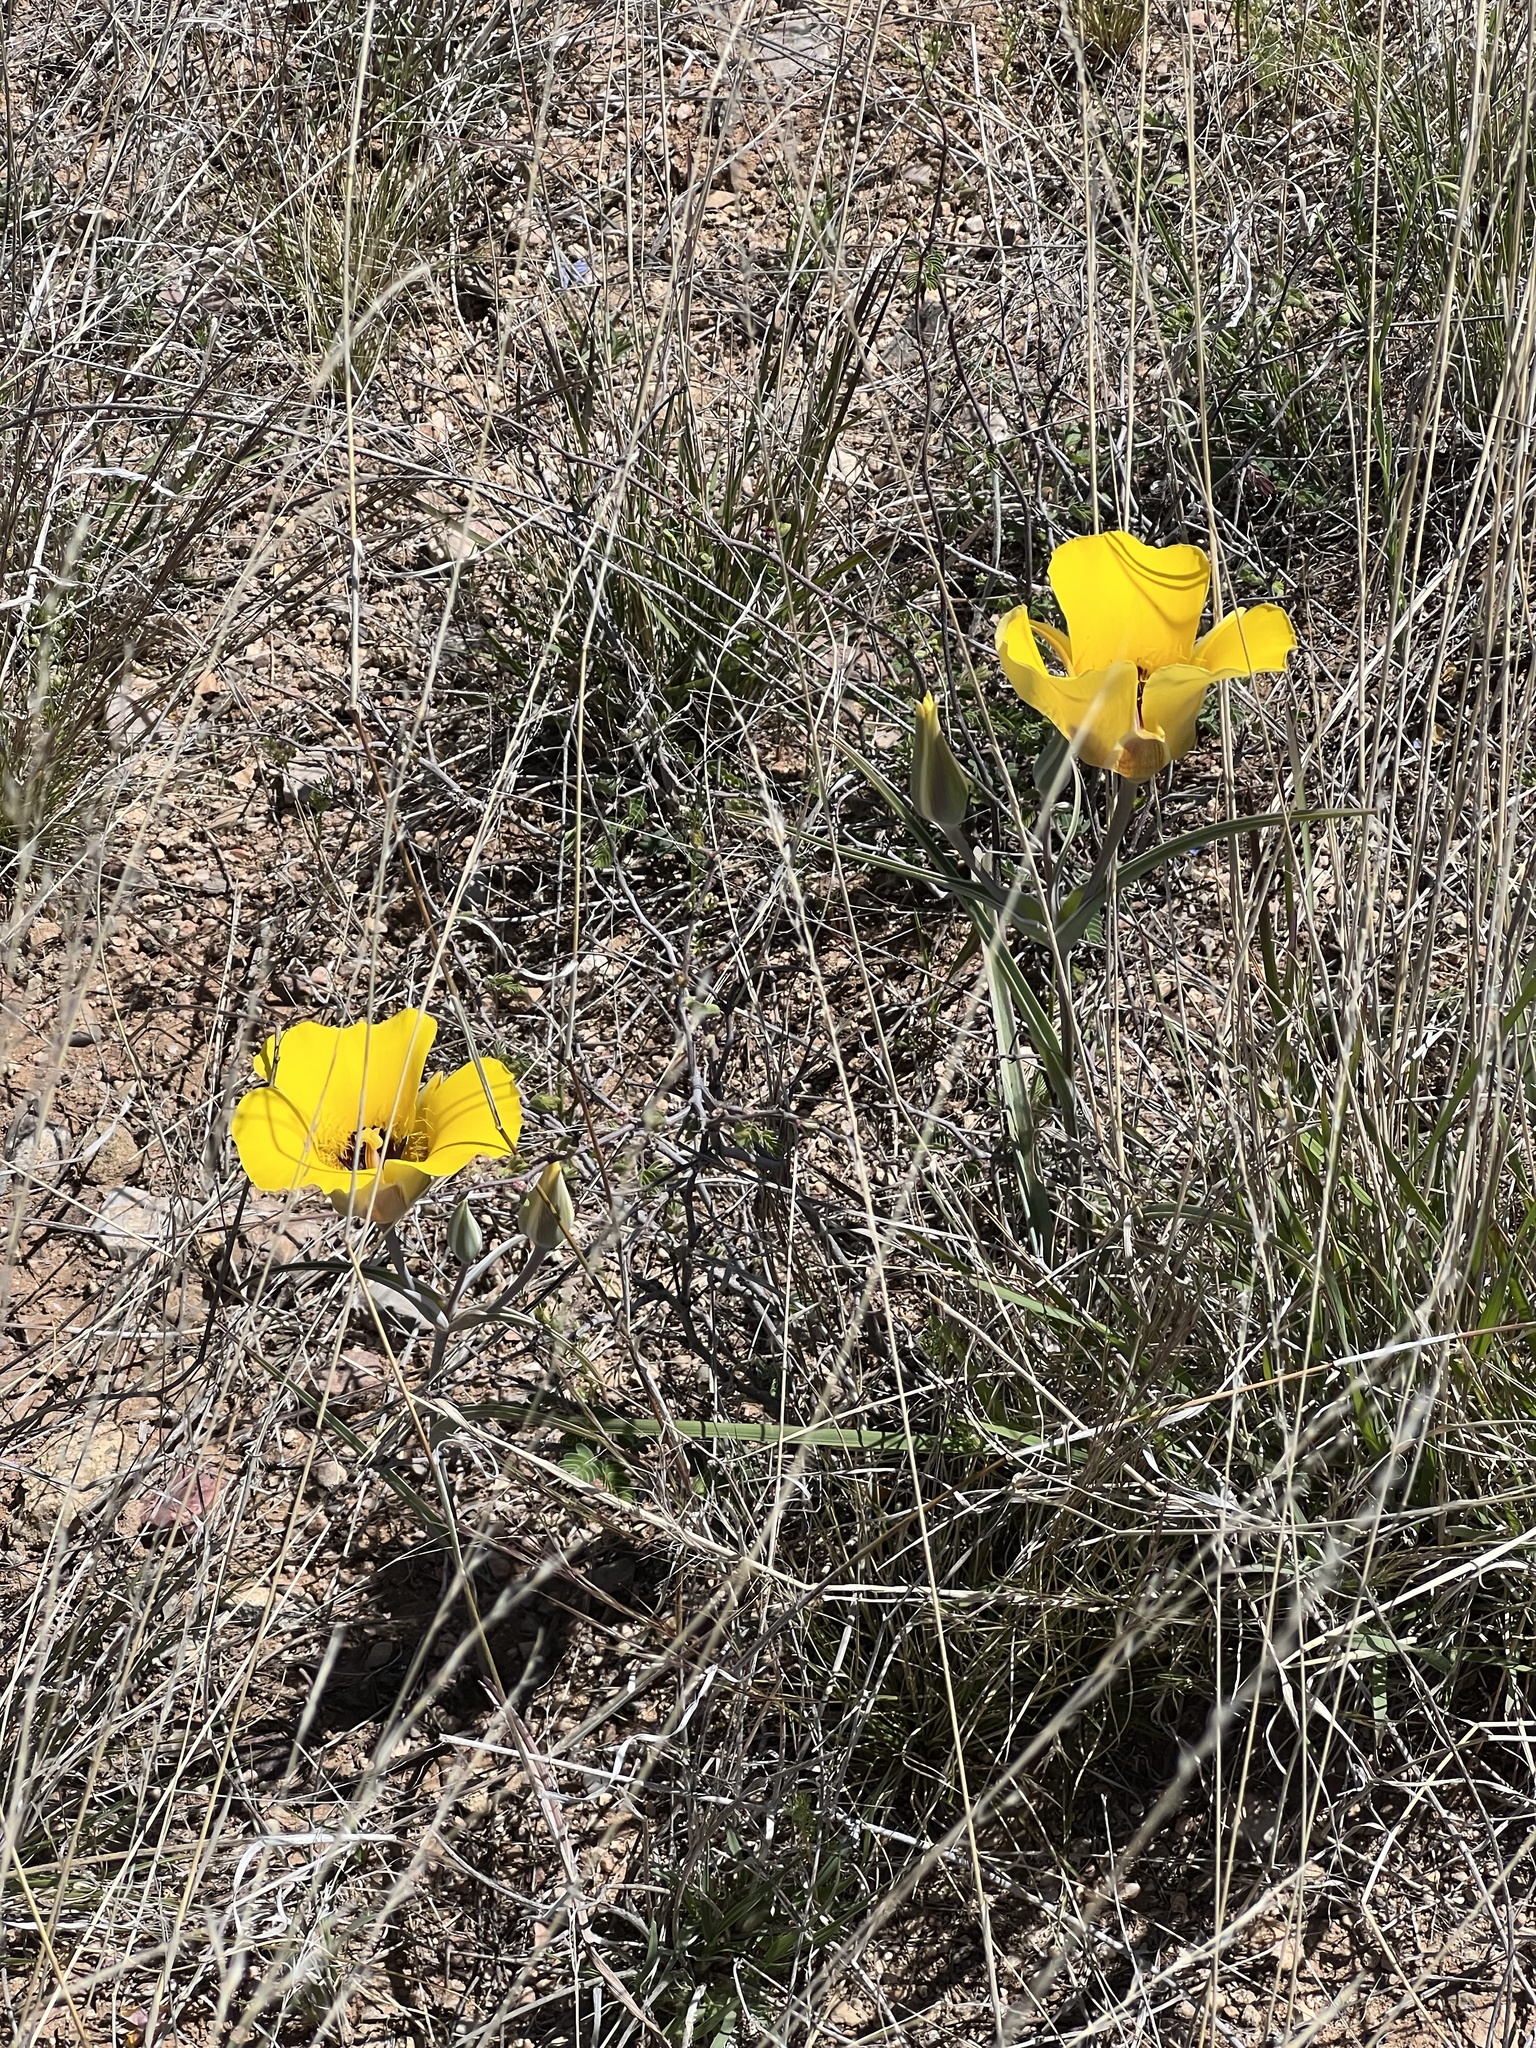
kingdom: Plantae
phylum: Tracheophyta
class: Liliopsida
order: Liliales
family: Liliaceae
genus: Calochortus
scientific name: Calochortus kennedyi
